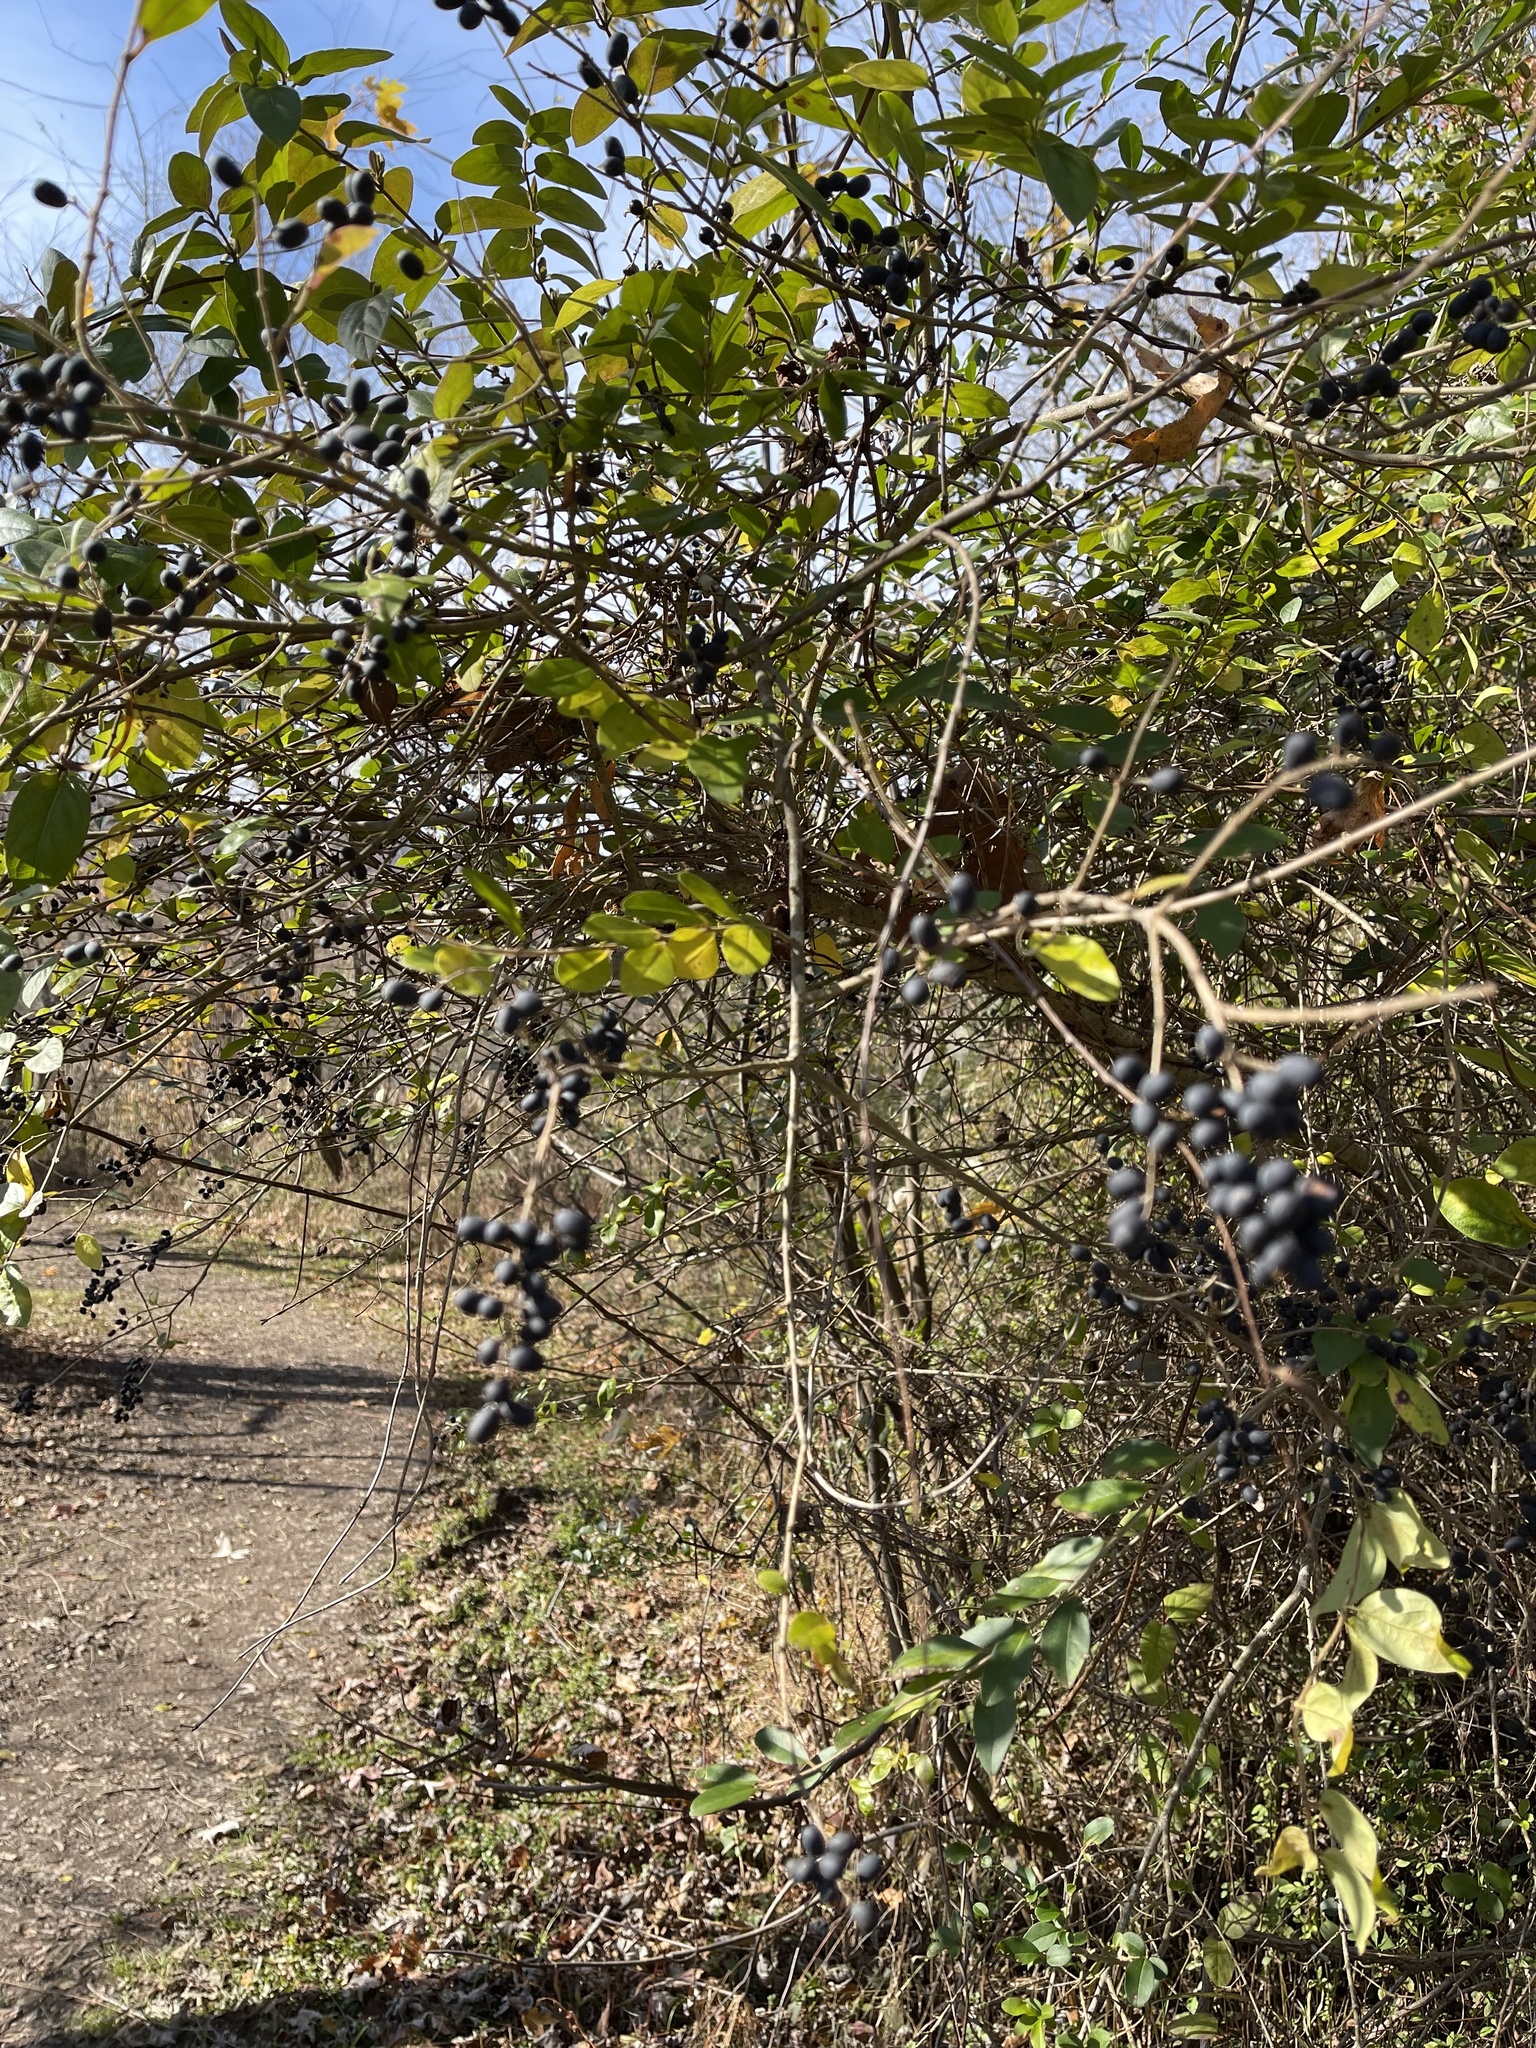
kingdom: Plantae
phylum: Tracheophyta
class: Magnoliopsida
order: Lamiales
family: Oleaceae
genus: Ligustrum
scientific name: Ligustrum sinense
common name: Chinese privet
